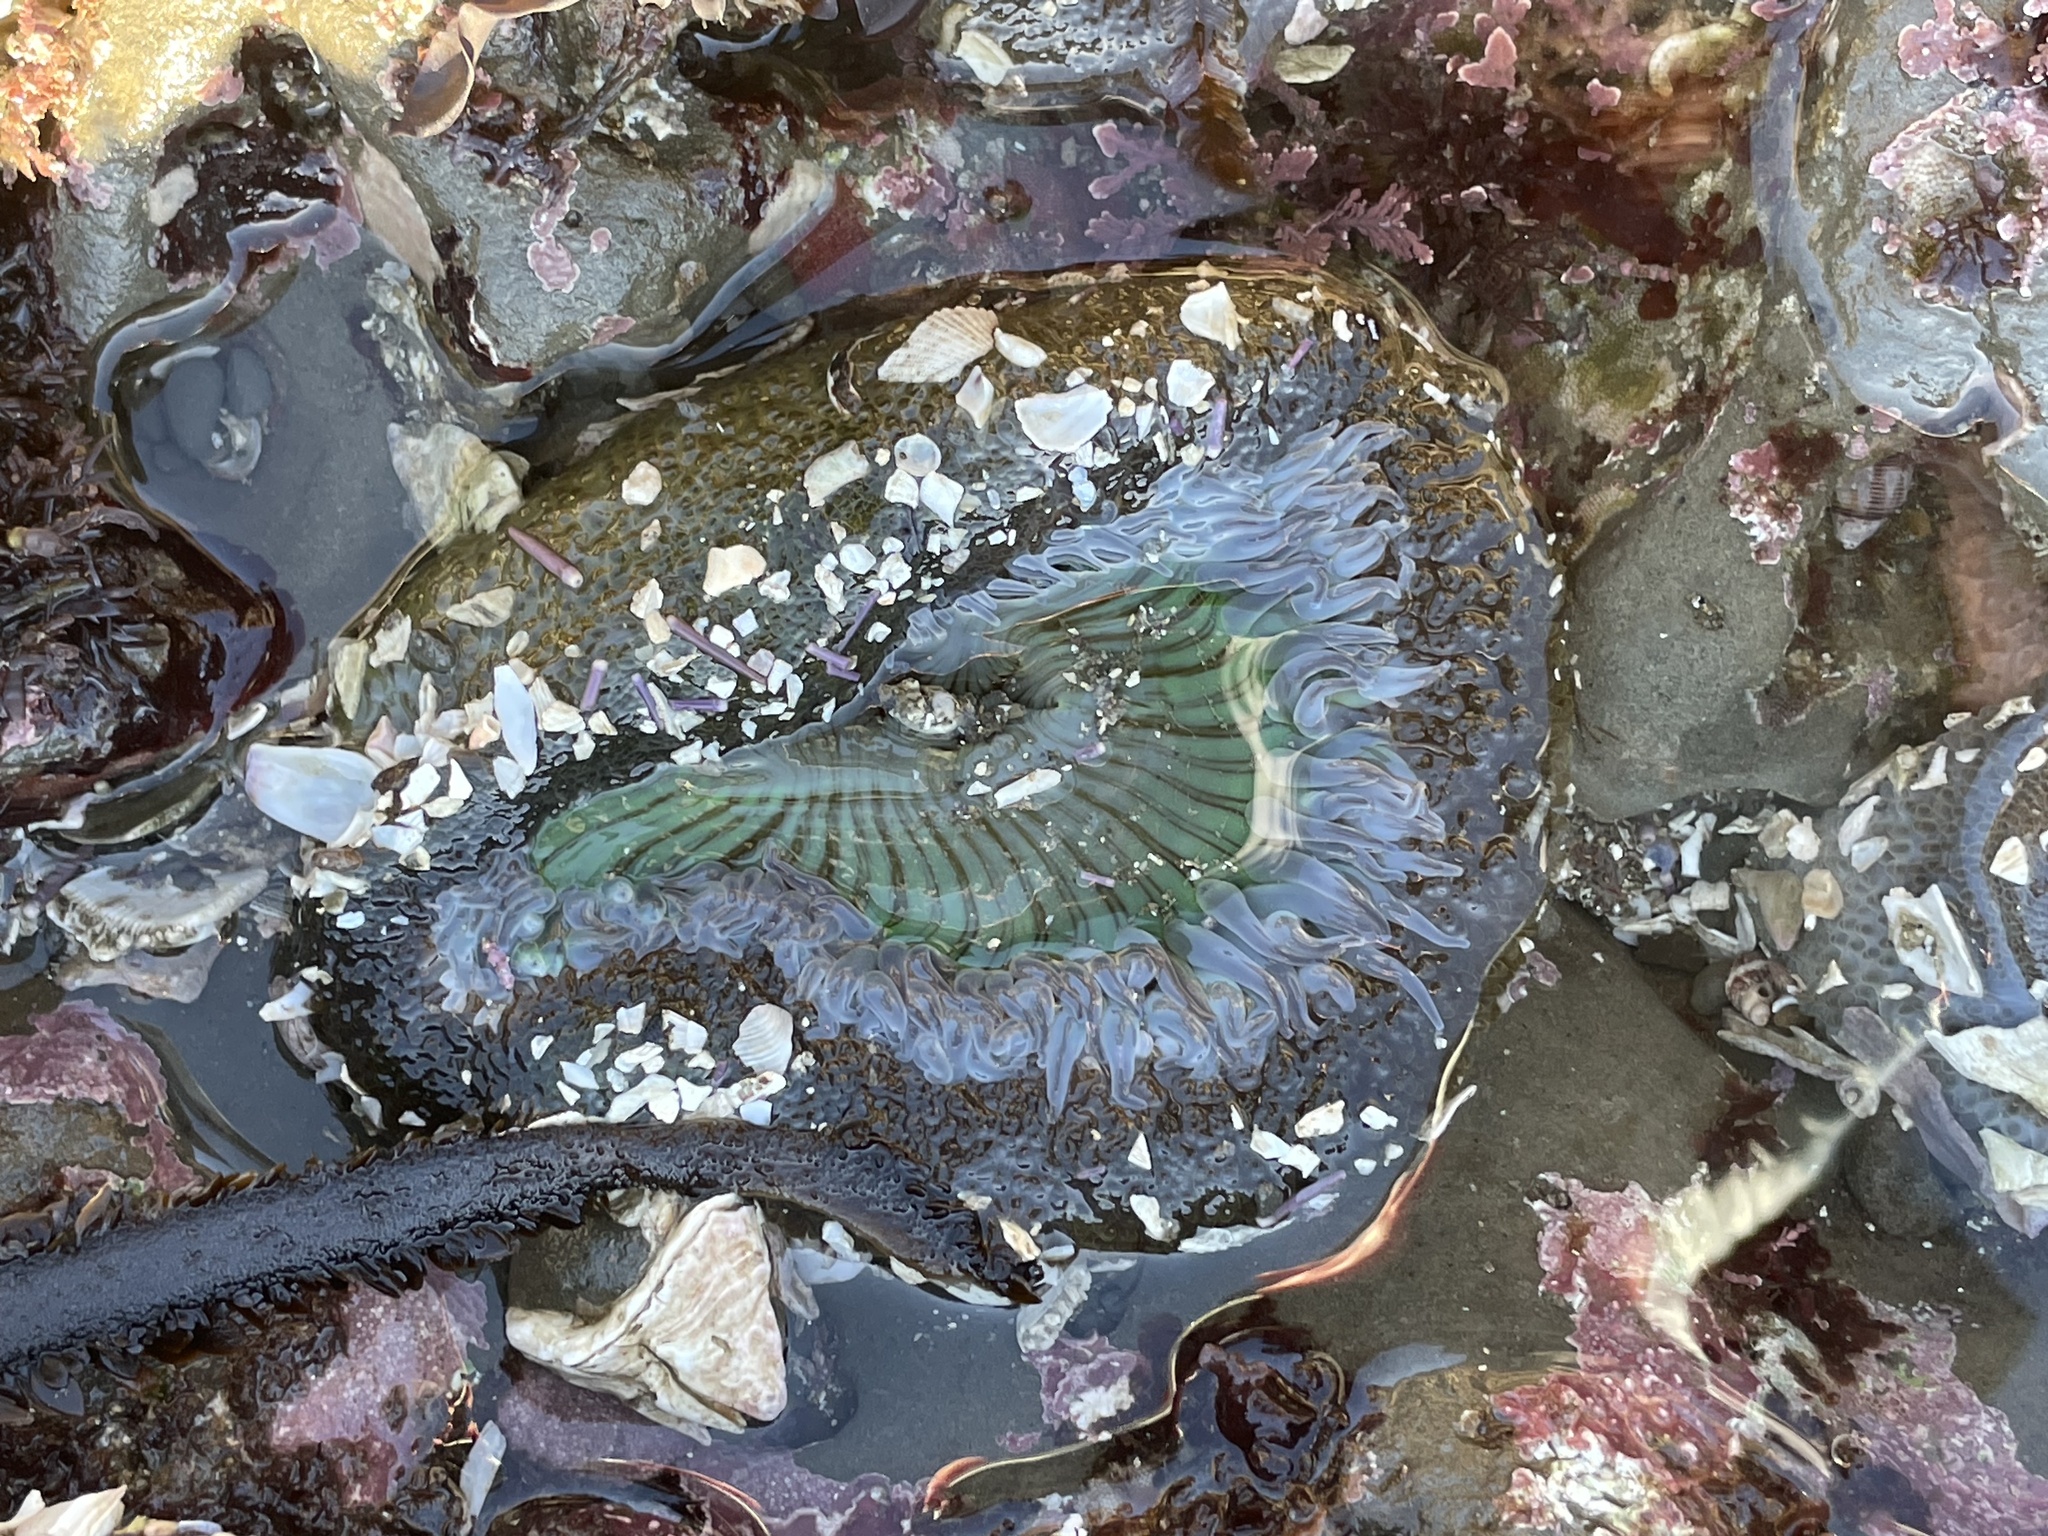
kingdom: Animalia
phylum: Cnidaria
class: Anthozoa
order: Actiniaria
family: Actiniidae
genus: Anthopleura
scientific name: Anthopleura sola
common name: Sun anemone
